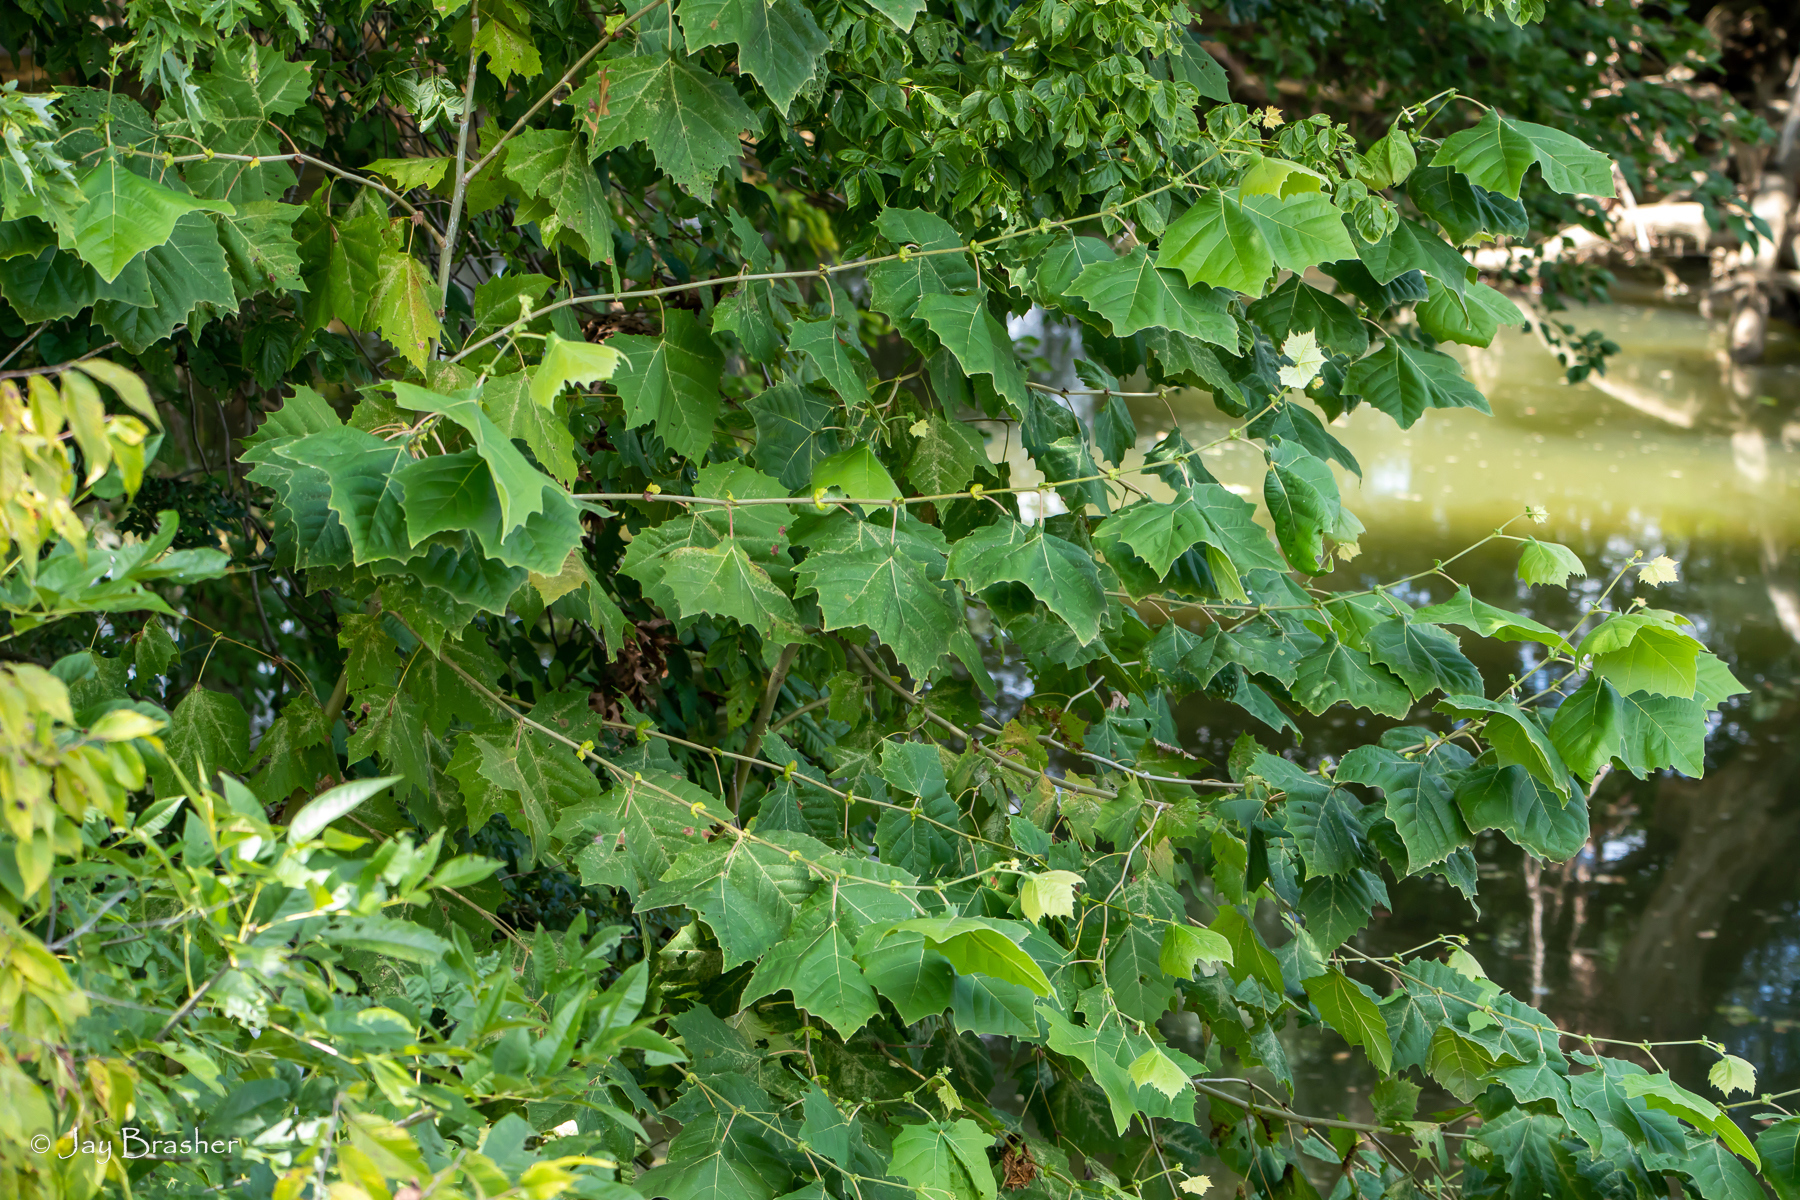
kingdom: Plantae
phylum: Tracheophyta
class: Magnoliopsida
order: Proteales
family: Platanaceae
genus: Platanus
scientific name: Platanus occidentalis
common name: American sycamore
